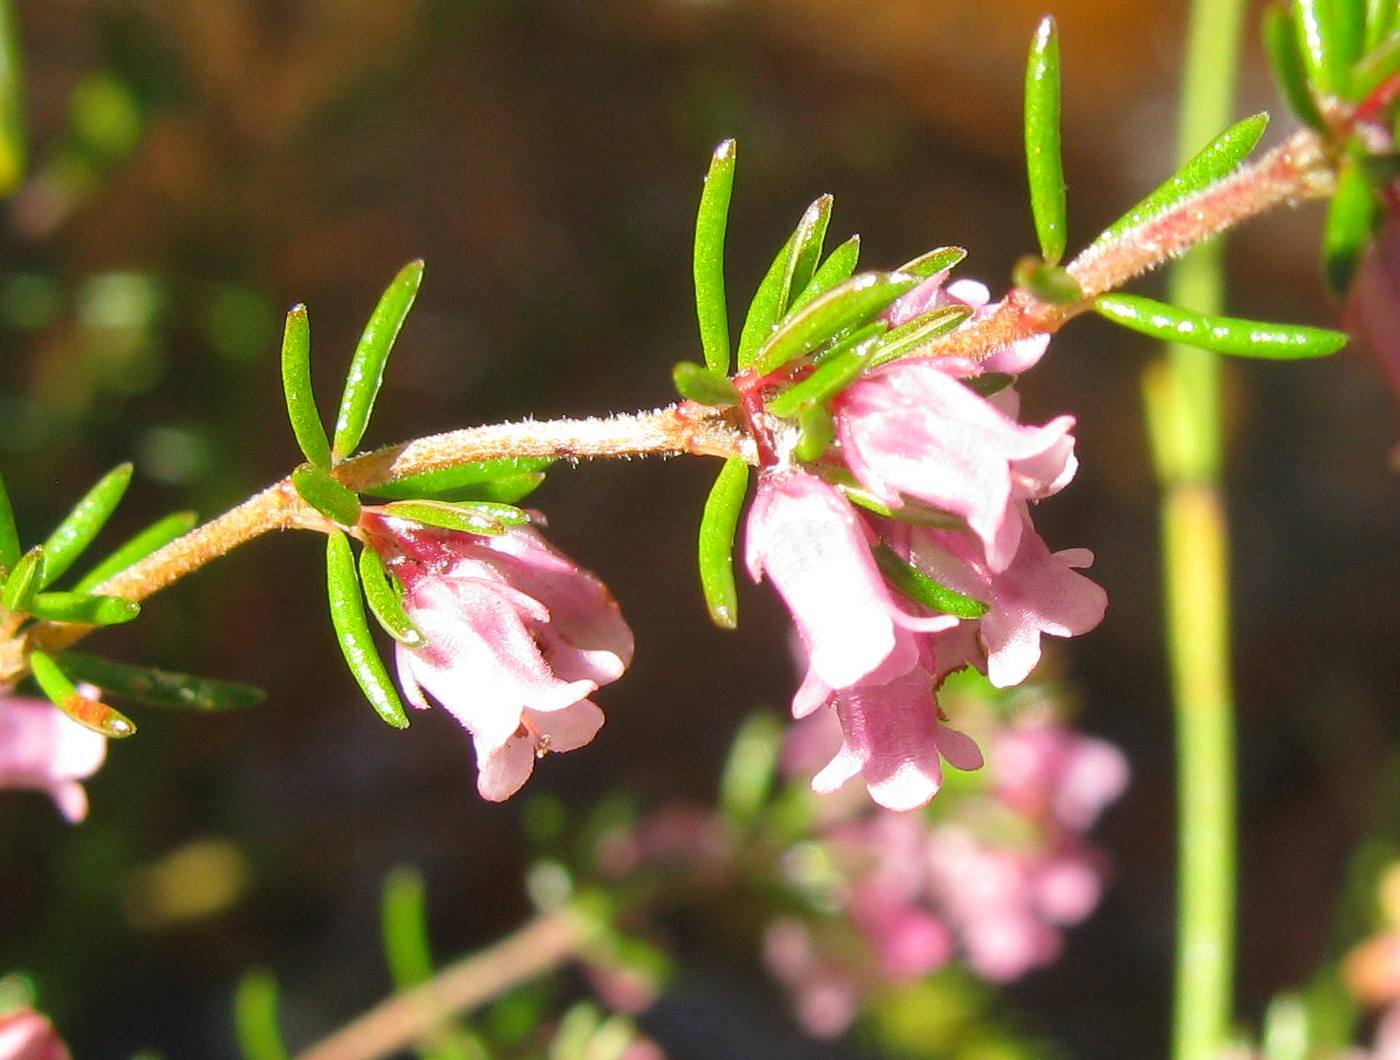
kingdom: Plantae
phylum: Tracheophyta
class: Magnoliopsida
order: Ericales
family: Ericaceae
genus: Erica
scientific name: Erica intervallaris
